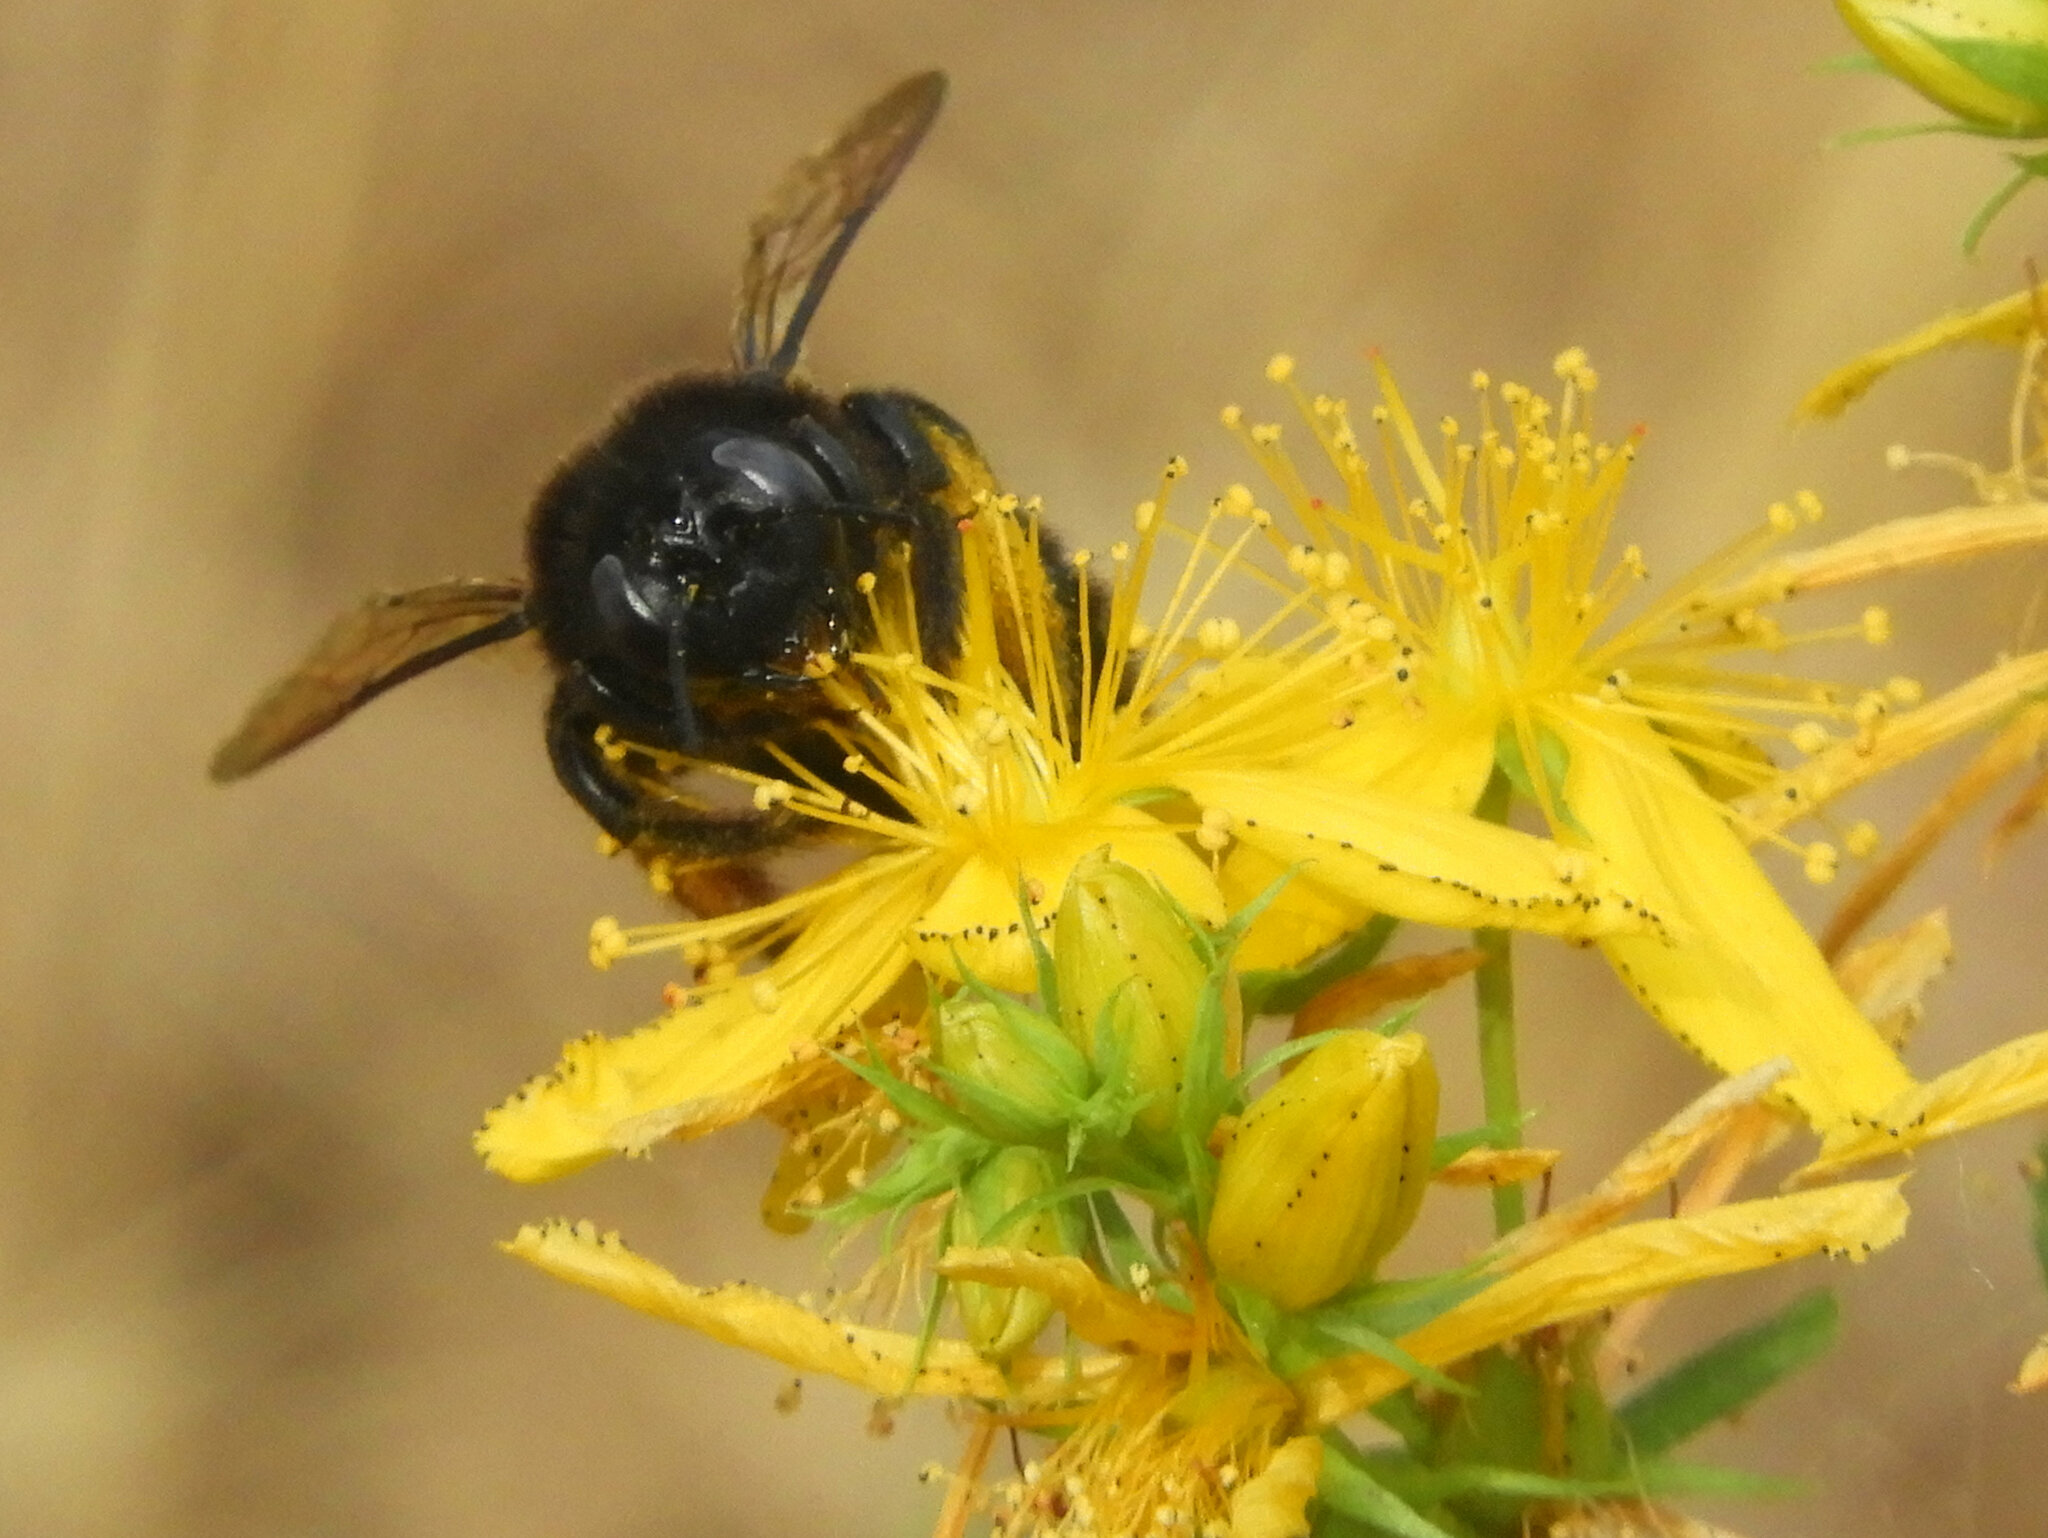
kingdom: Animalia
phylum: Arthropoda
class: Insecta
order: Hymenoptera
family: Apidae
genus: Xylocopa
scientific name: Xylocopa tabaniformis
